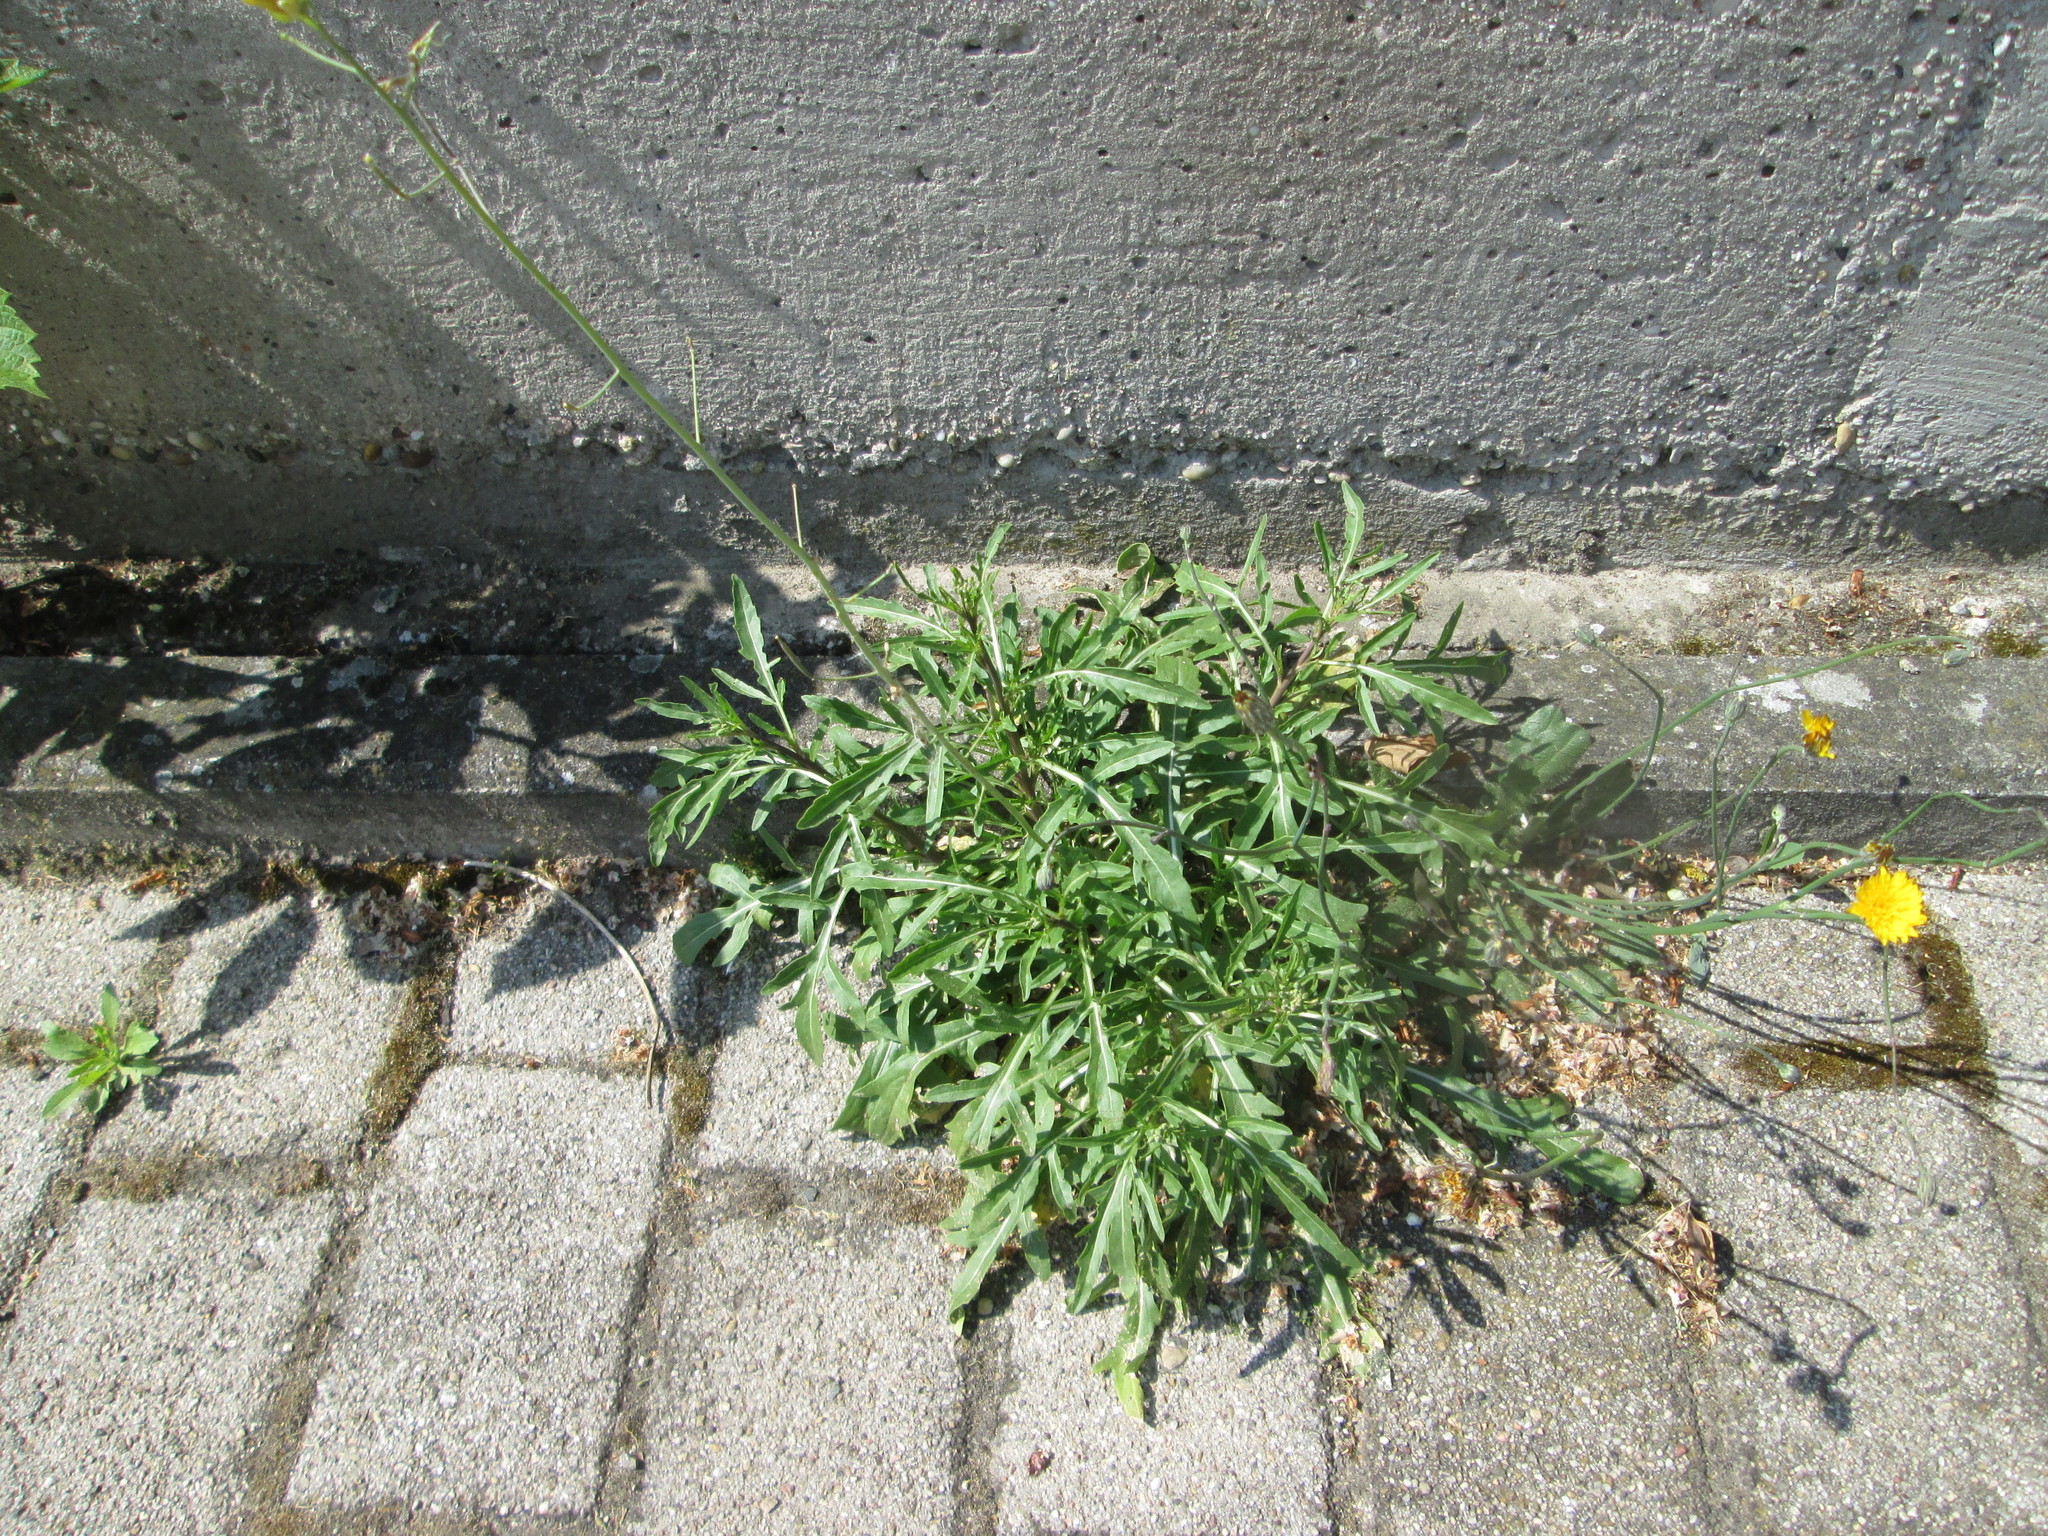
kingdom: Plantae
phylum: Tracheophyta
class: Magnoliopsida
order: Brassicales
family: Brassicaceae
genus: Diplotaxis
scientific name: Diplotaxis tenuifolia
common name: Perennial wall-rocket
